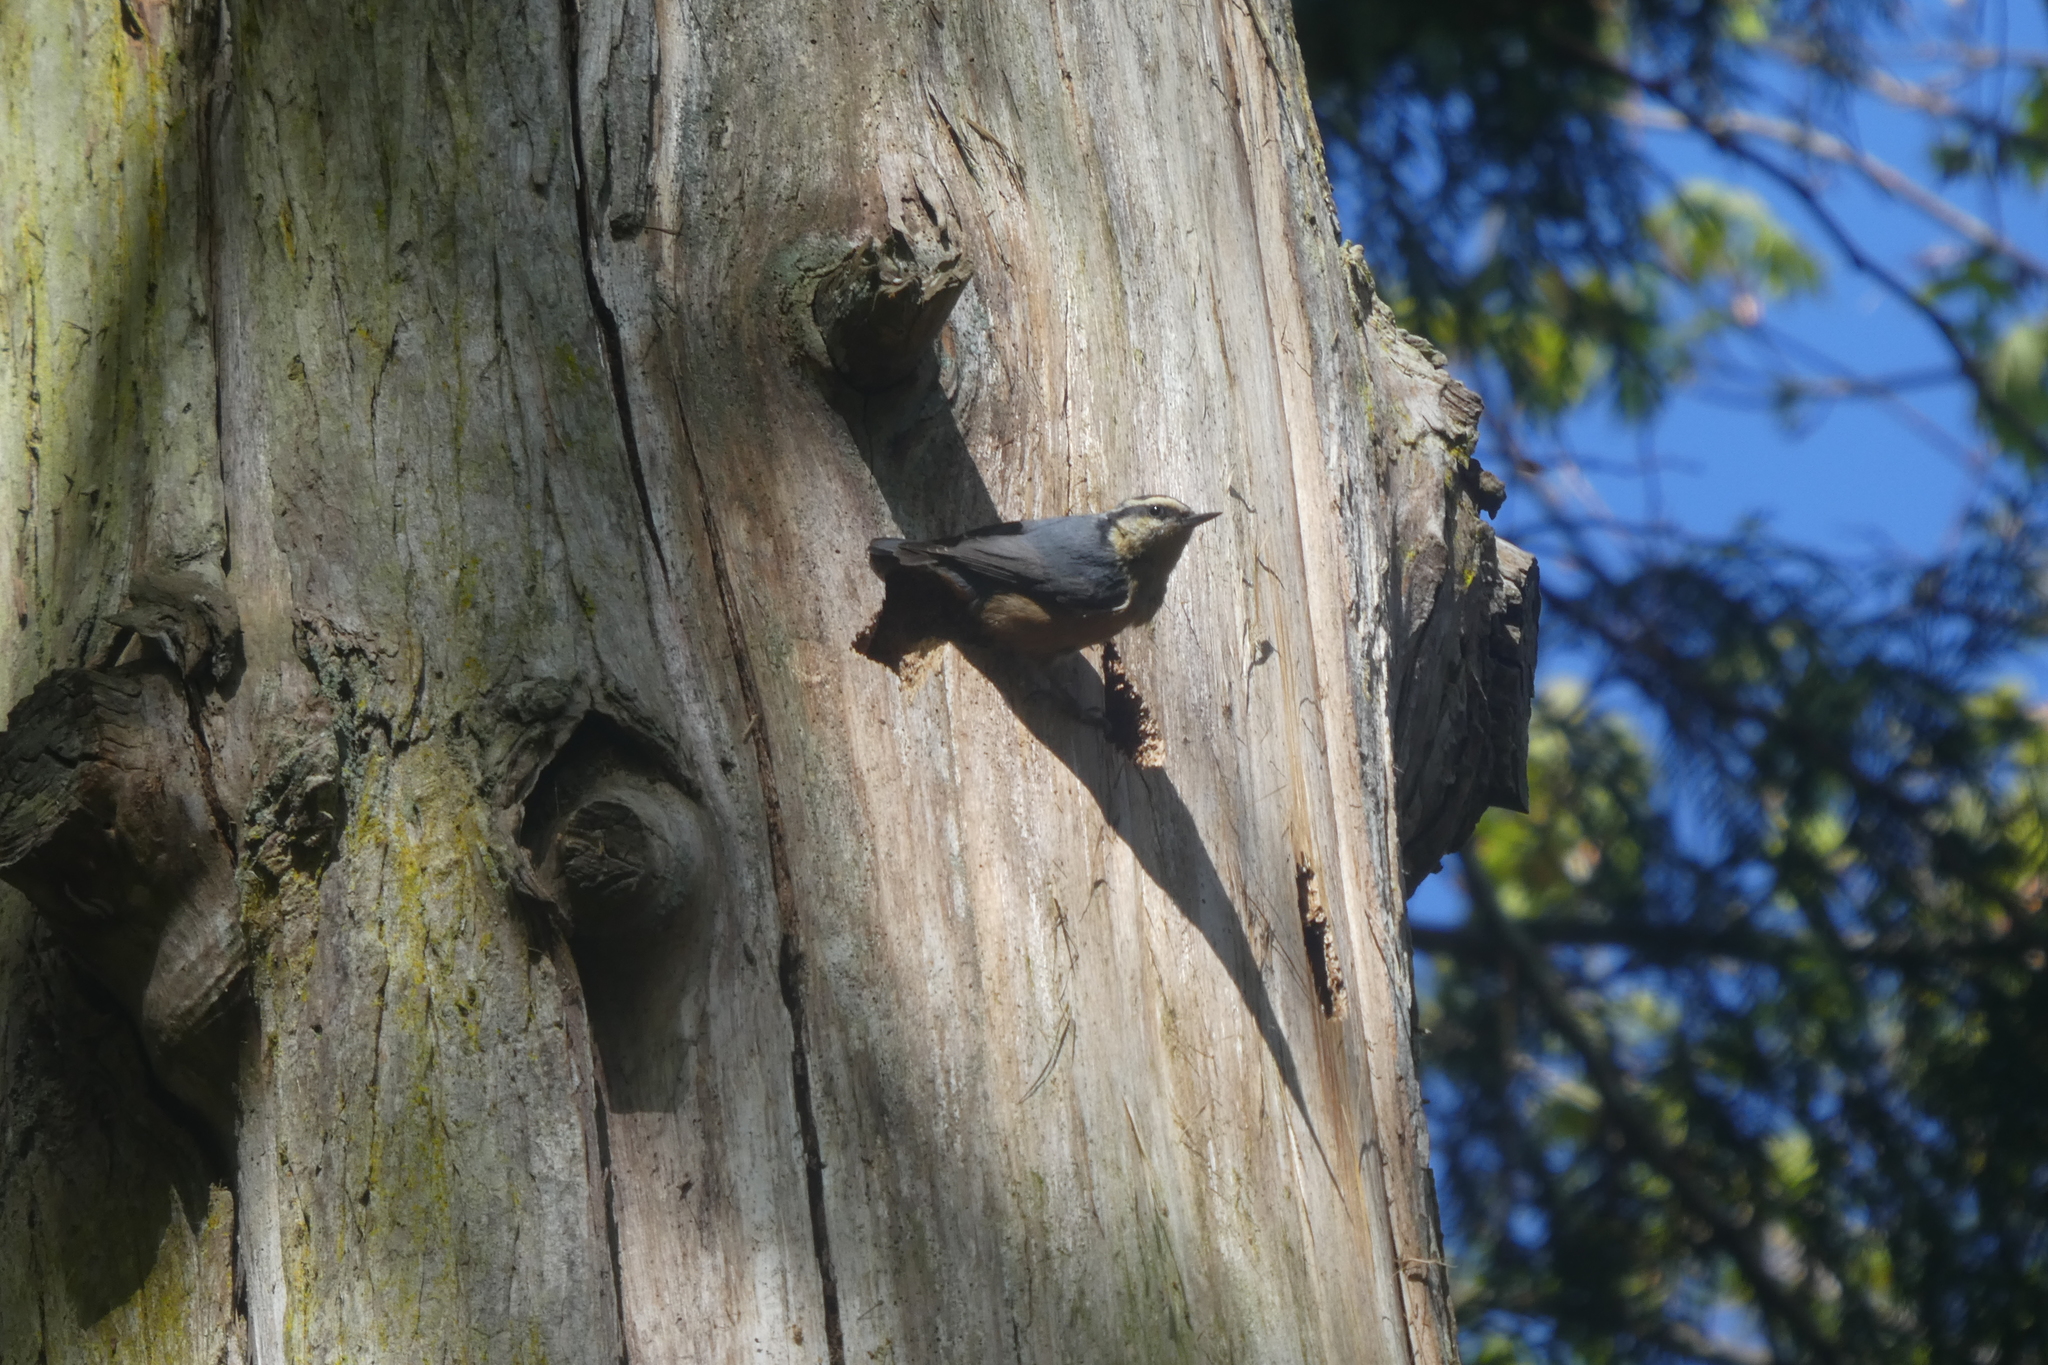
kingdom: Animalia
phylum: Chordata
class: Aves
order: Passeriformes
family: Sittidae
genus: Sitta
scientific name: Sitta canadensis
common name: Red-breasted nuthatch
